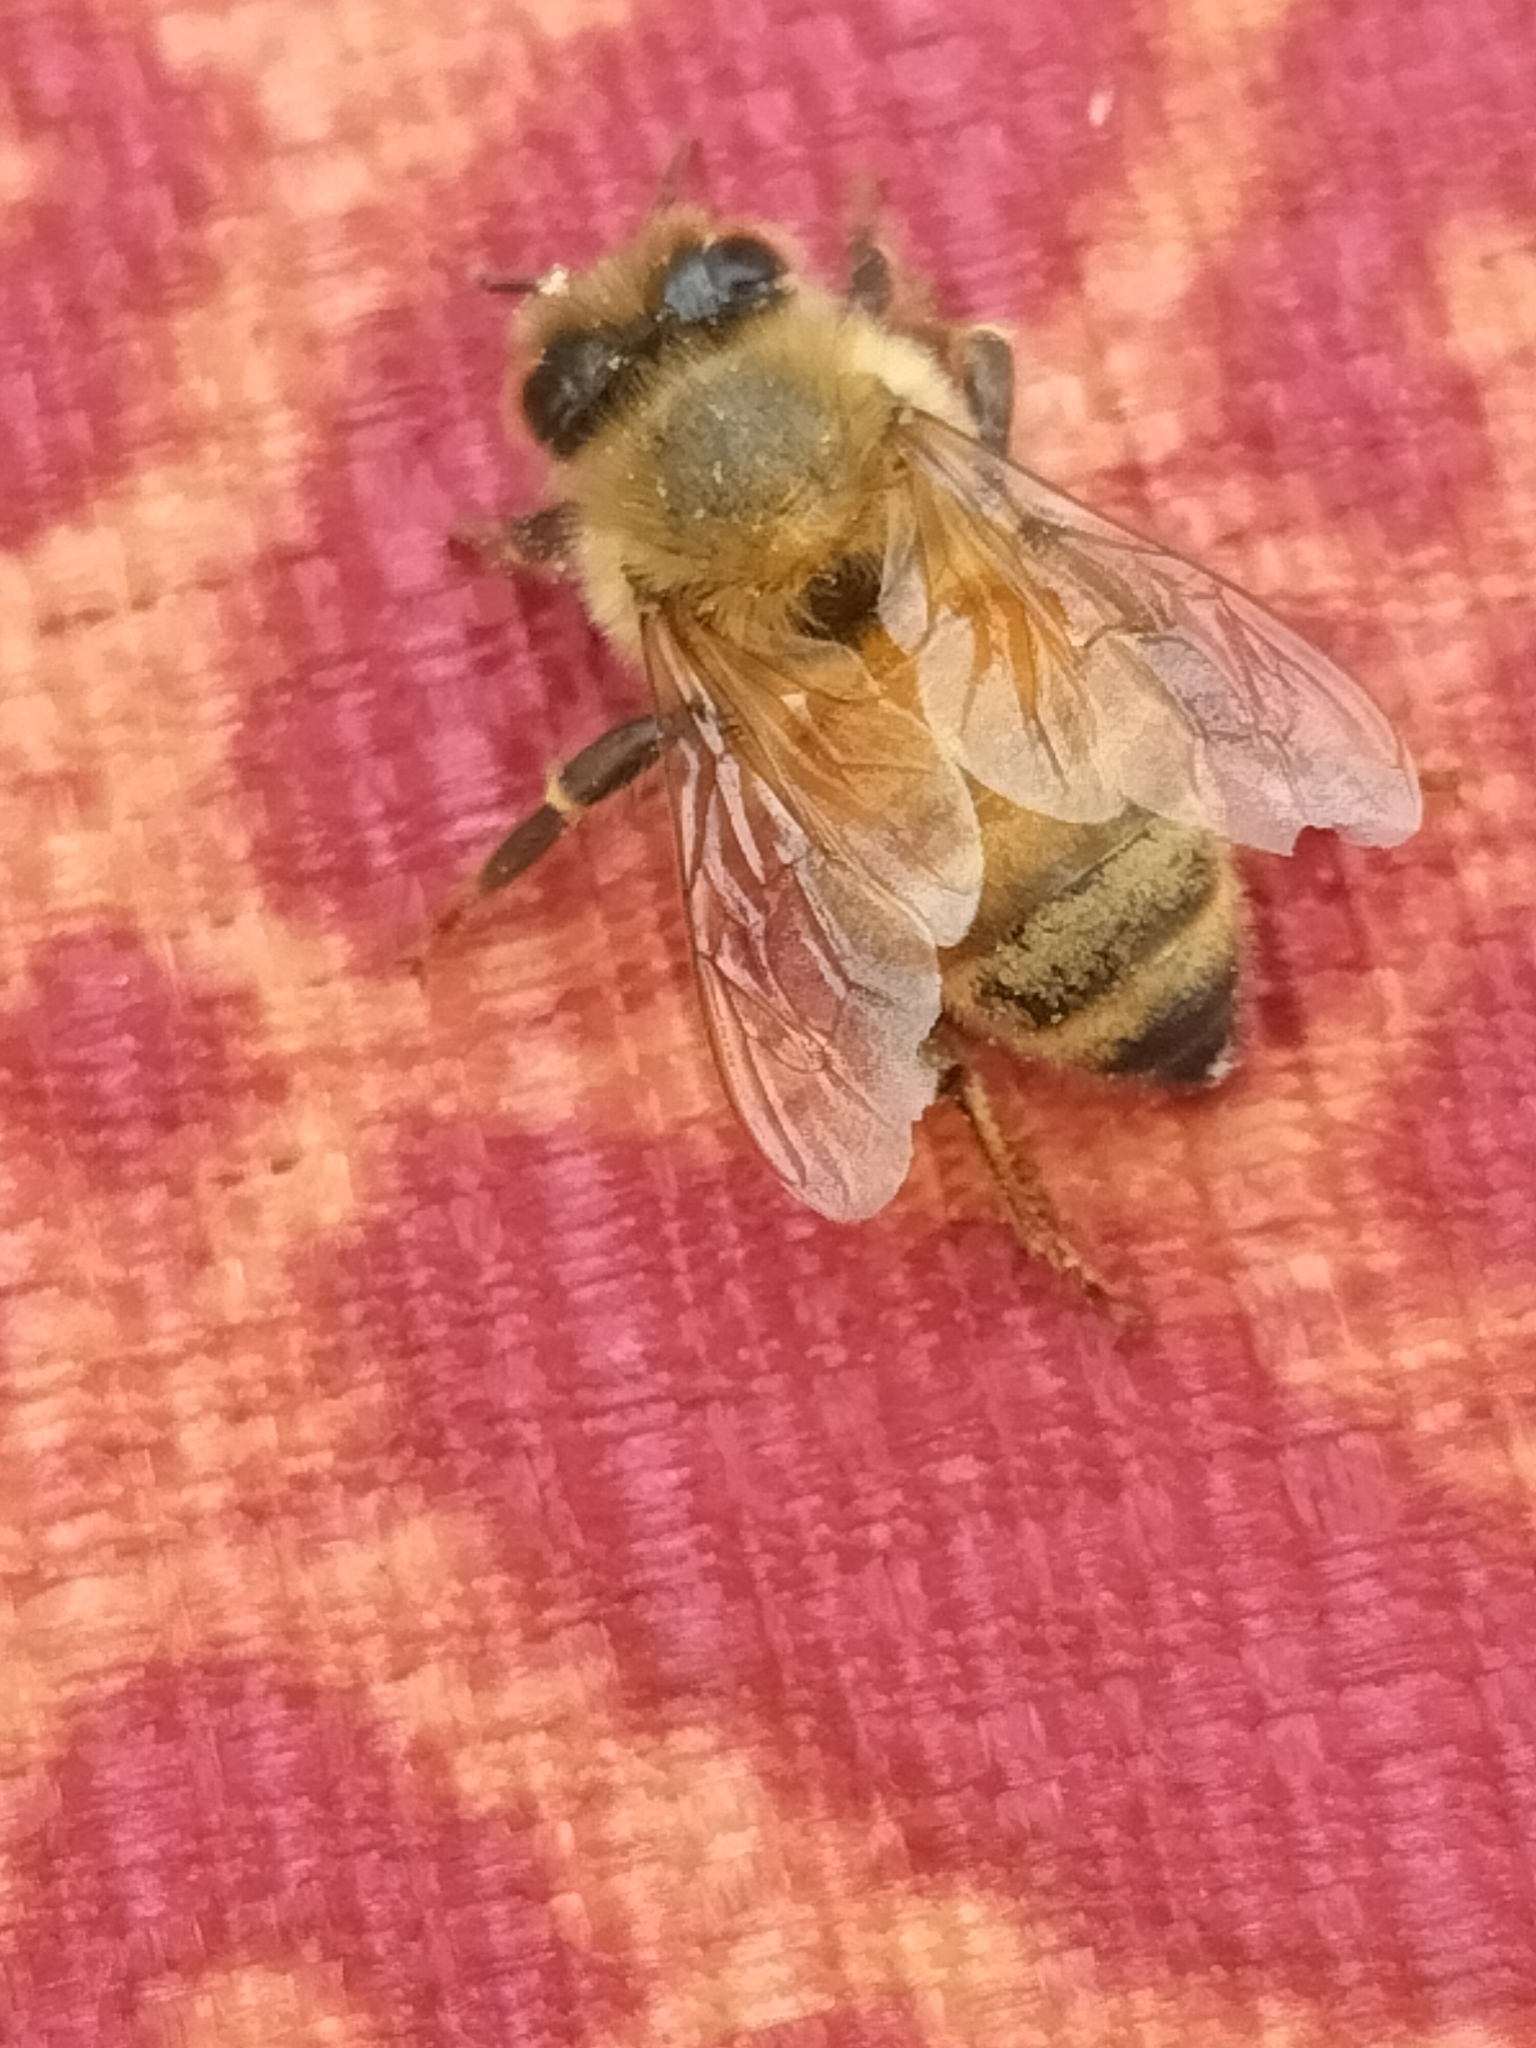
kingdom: Animalia
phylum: Arthropoda
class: Insecta
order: Hymenoptera
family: Apidae
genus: Apis
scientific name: Apis mellifera
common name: Honey bee
